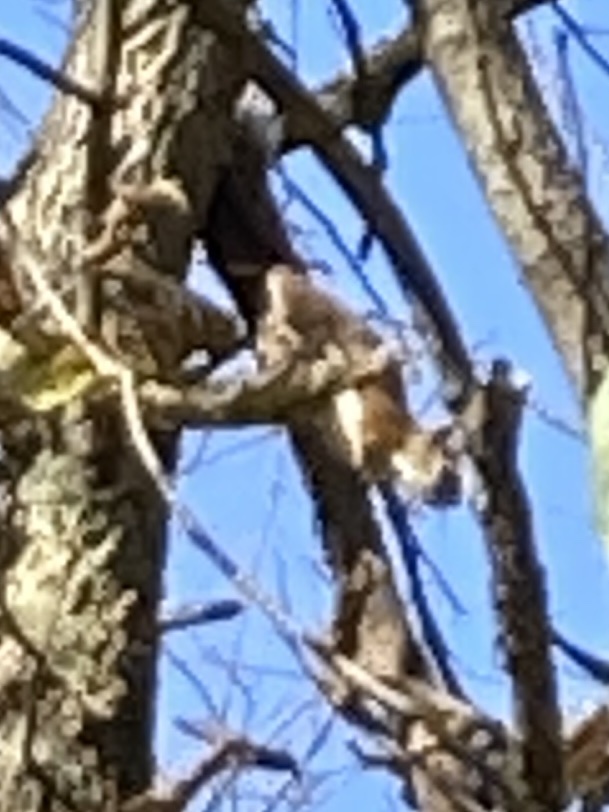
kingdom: Animalia
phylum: Chordata
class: Mammalia
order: Rodentia
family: Sciuridae
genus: Tamiasciurus
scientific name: Tamiasciurus hudsonicus
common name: Red squirrel
